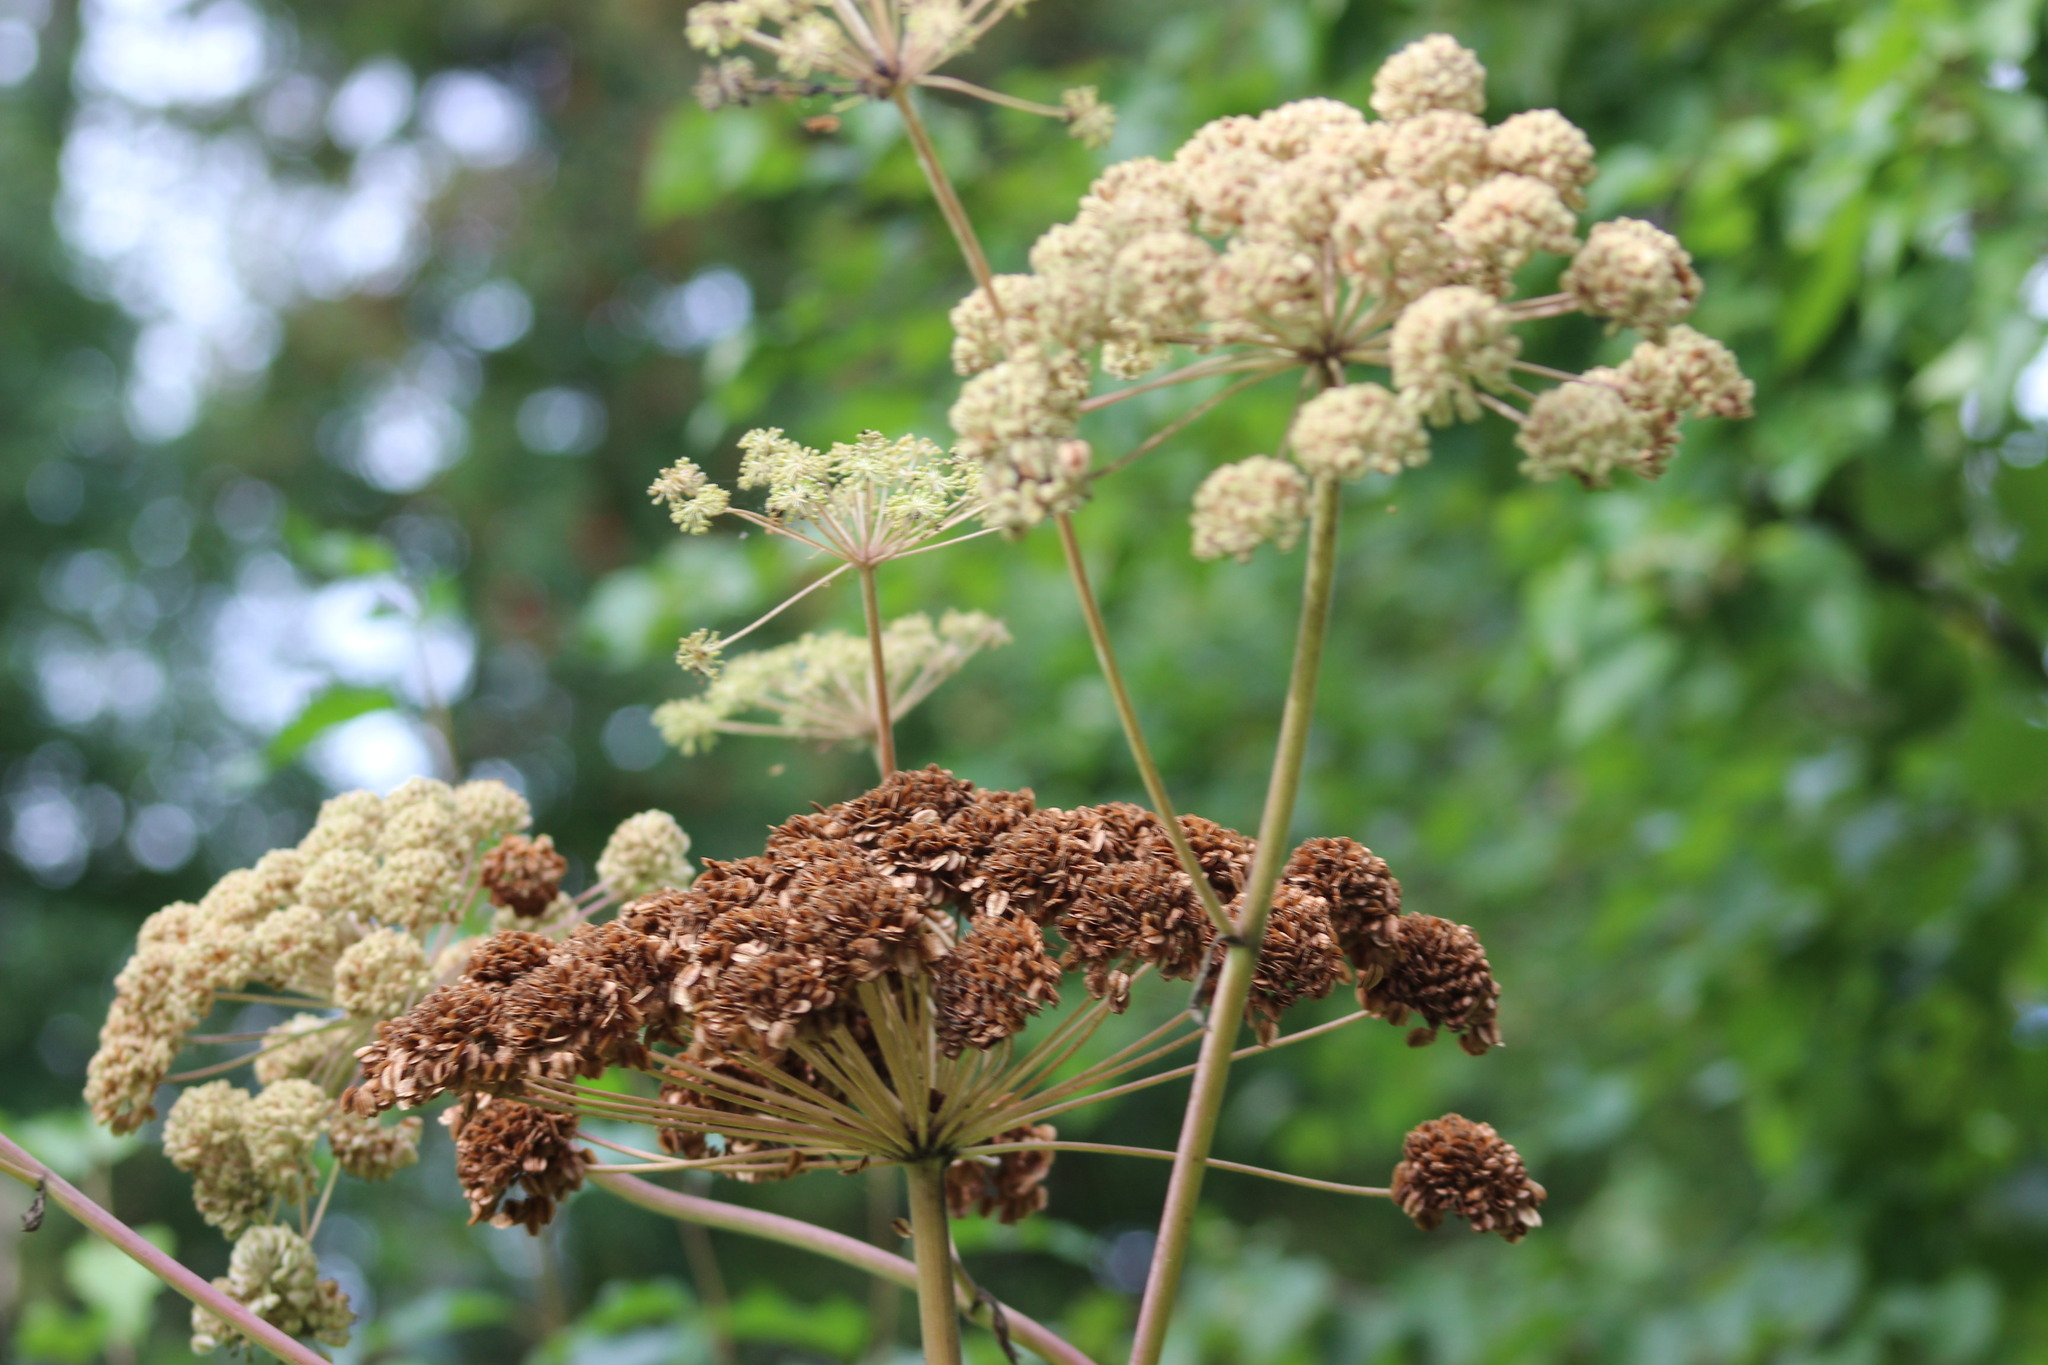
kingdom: Plantae
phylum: Tracheophyta
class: Magnoliopsida
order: Apiales
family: Apiaceae
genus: Angelica
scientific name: Angelica sylvestris
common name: Wild angelica
